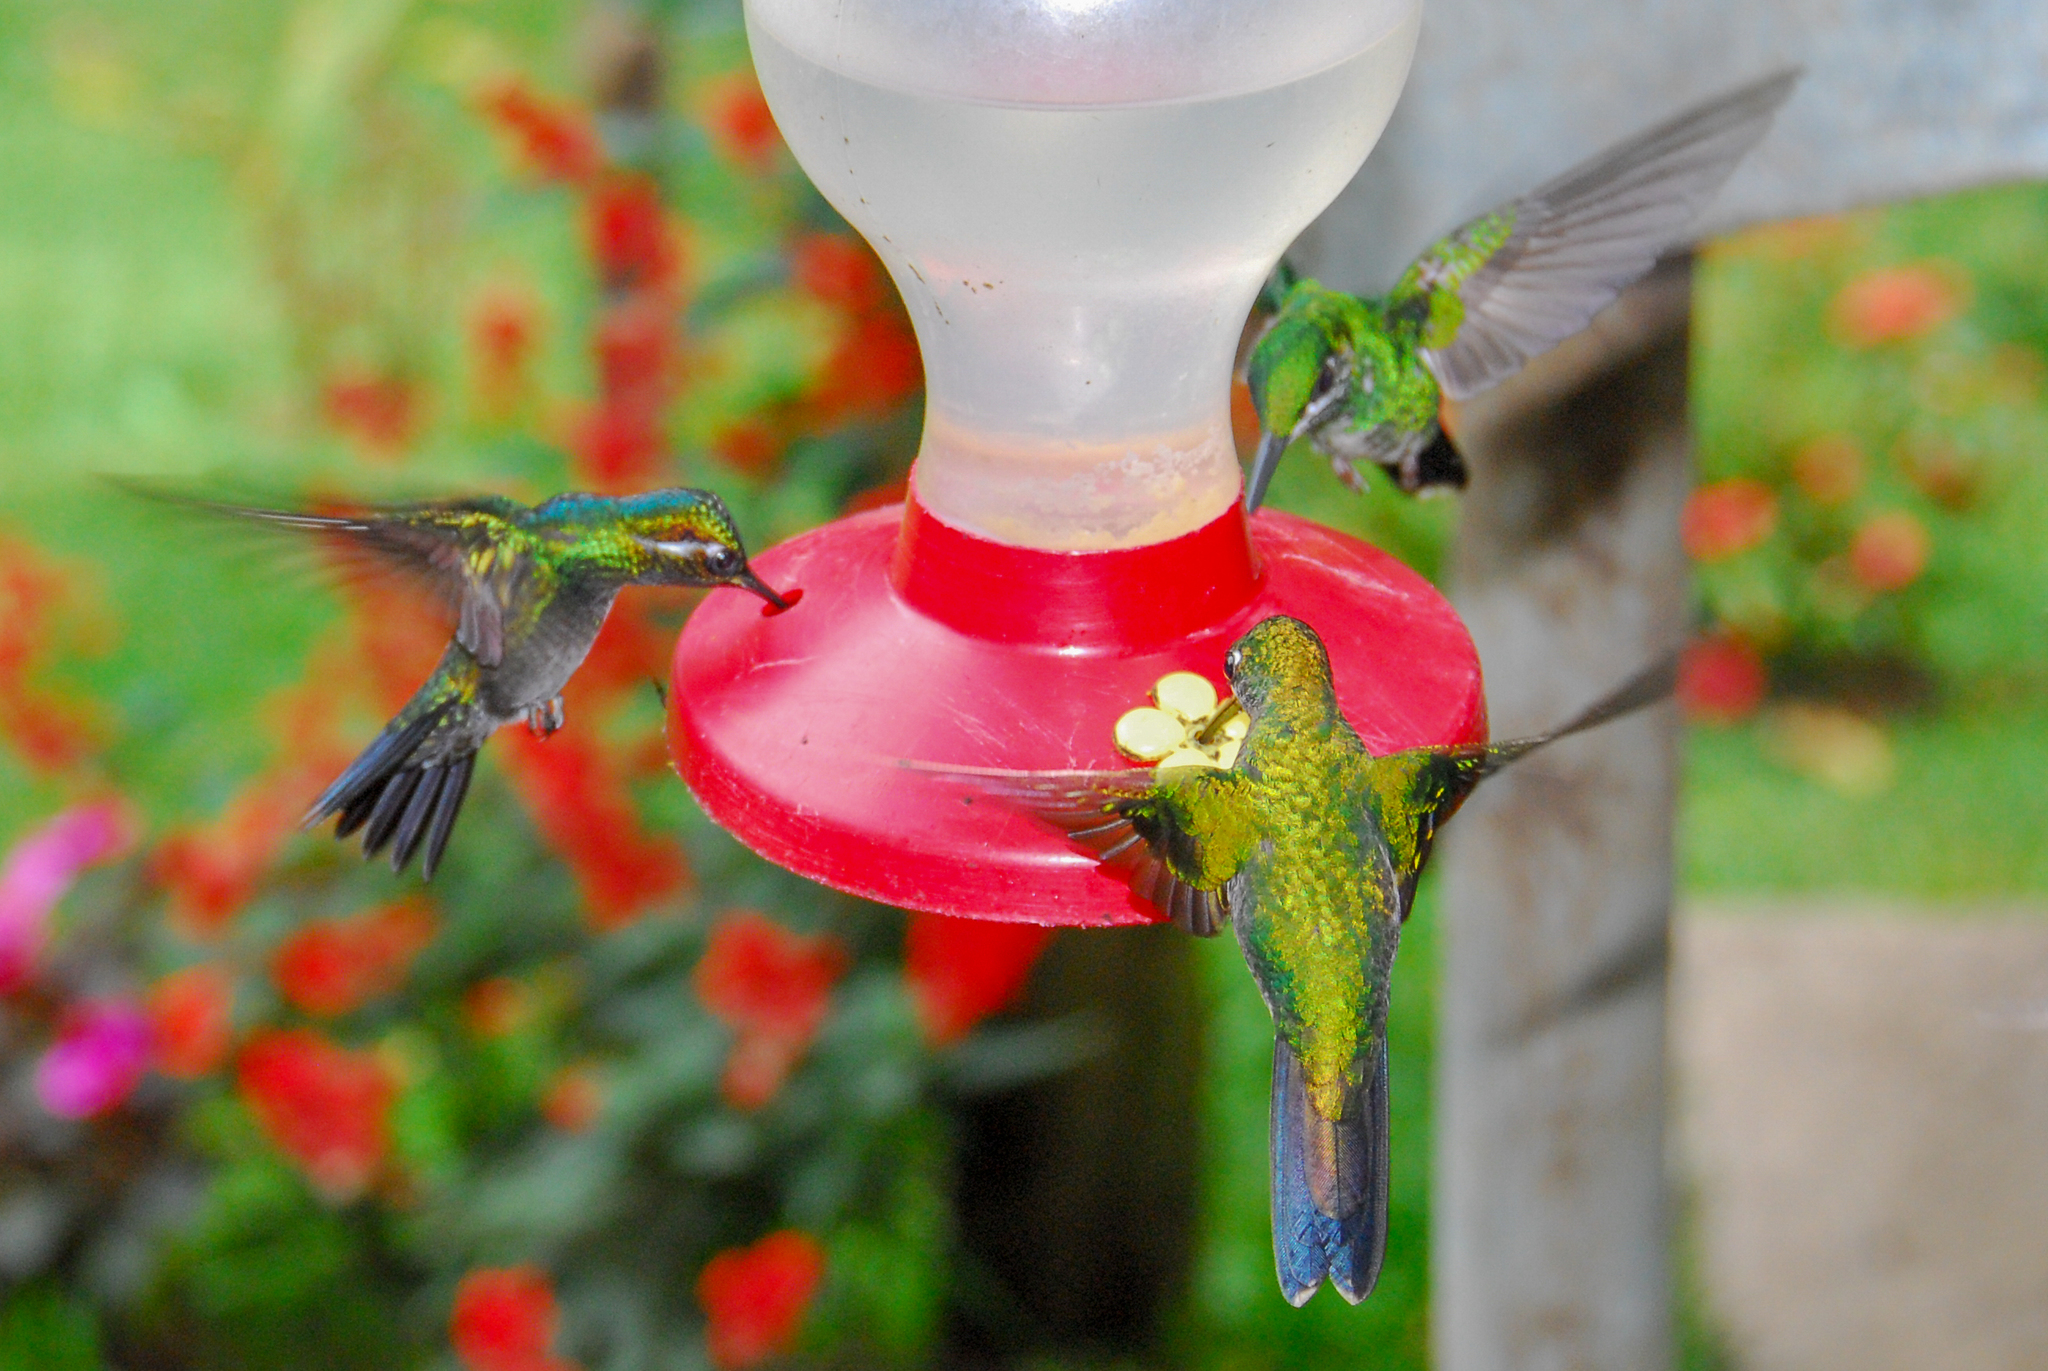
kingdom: Animalia
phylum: Chordata
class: Aves
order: Apodiformes
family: Trochilidae
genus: Lampornis
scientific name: Lampornis calolaemus
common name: Purple-throated mountain-gem
